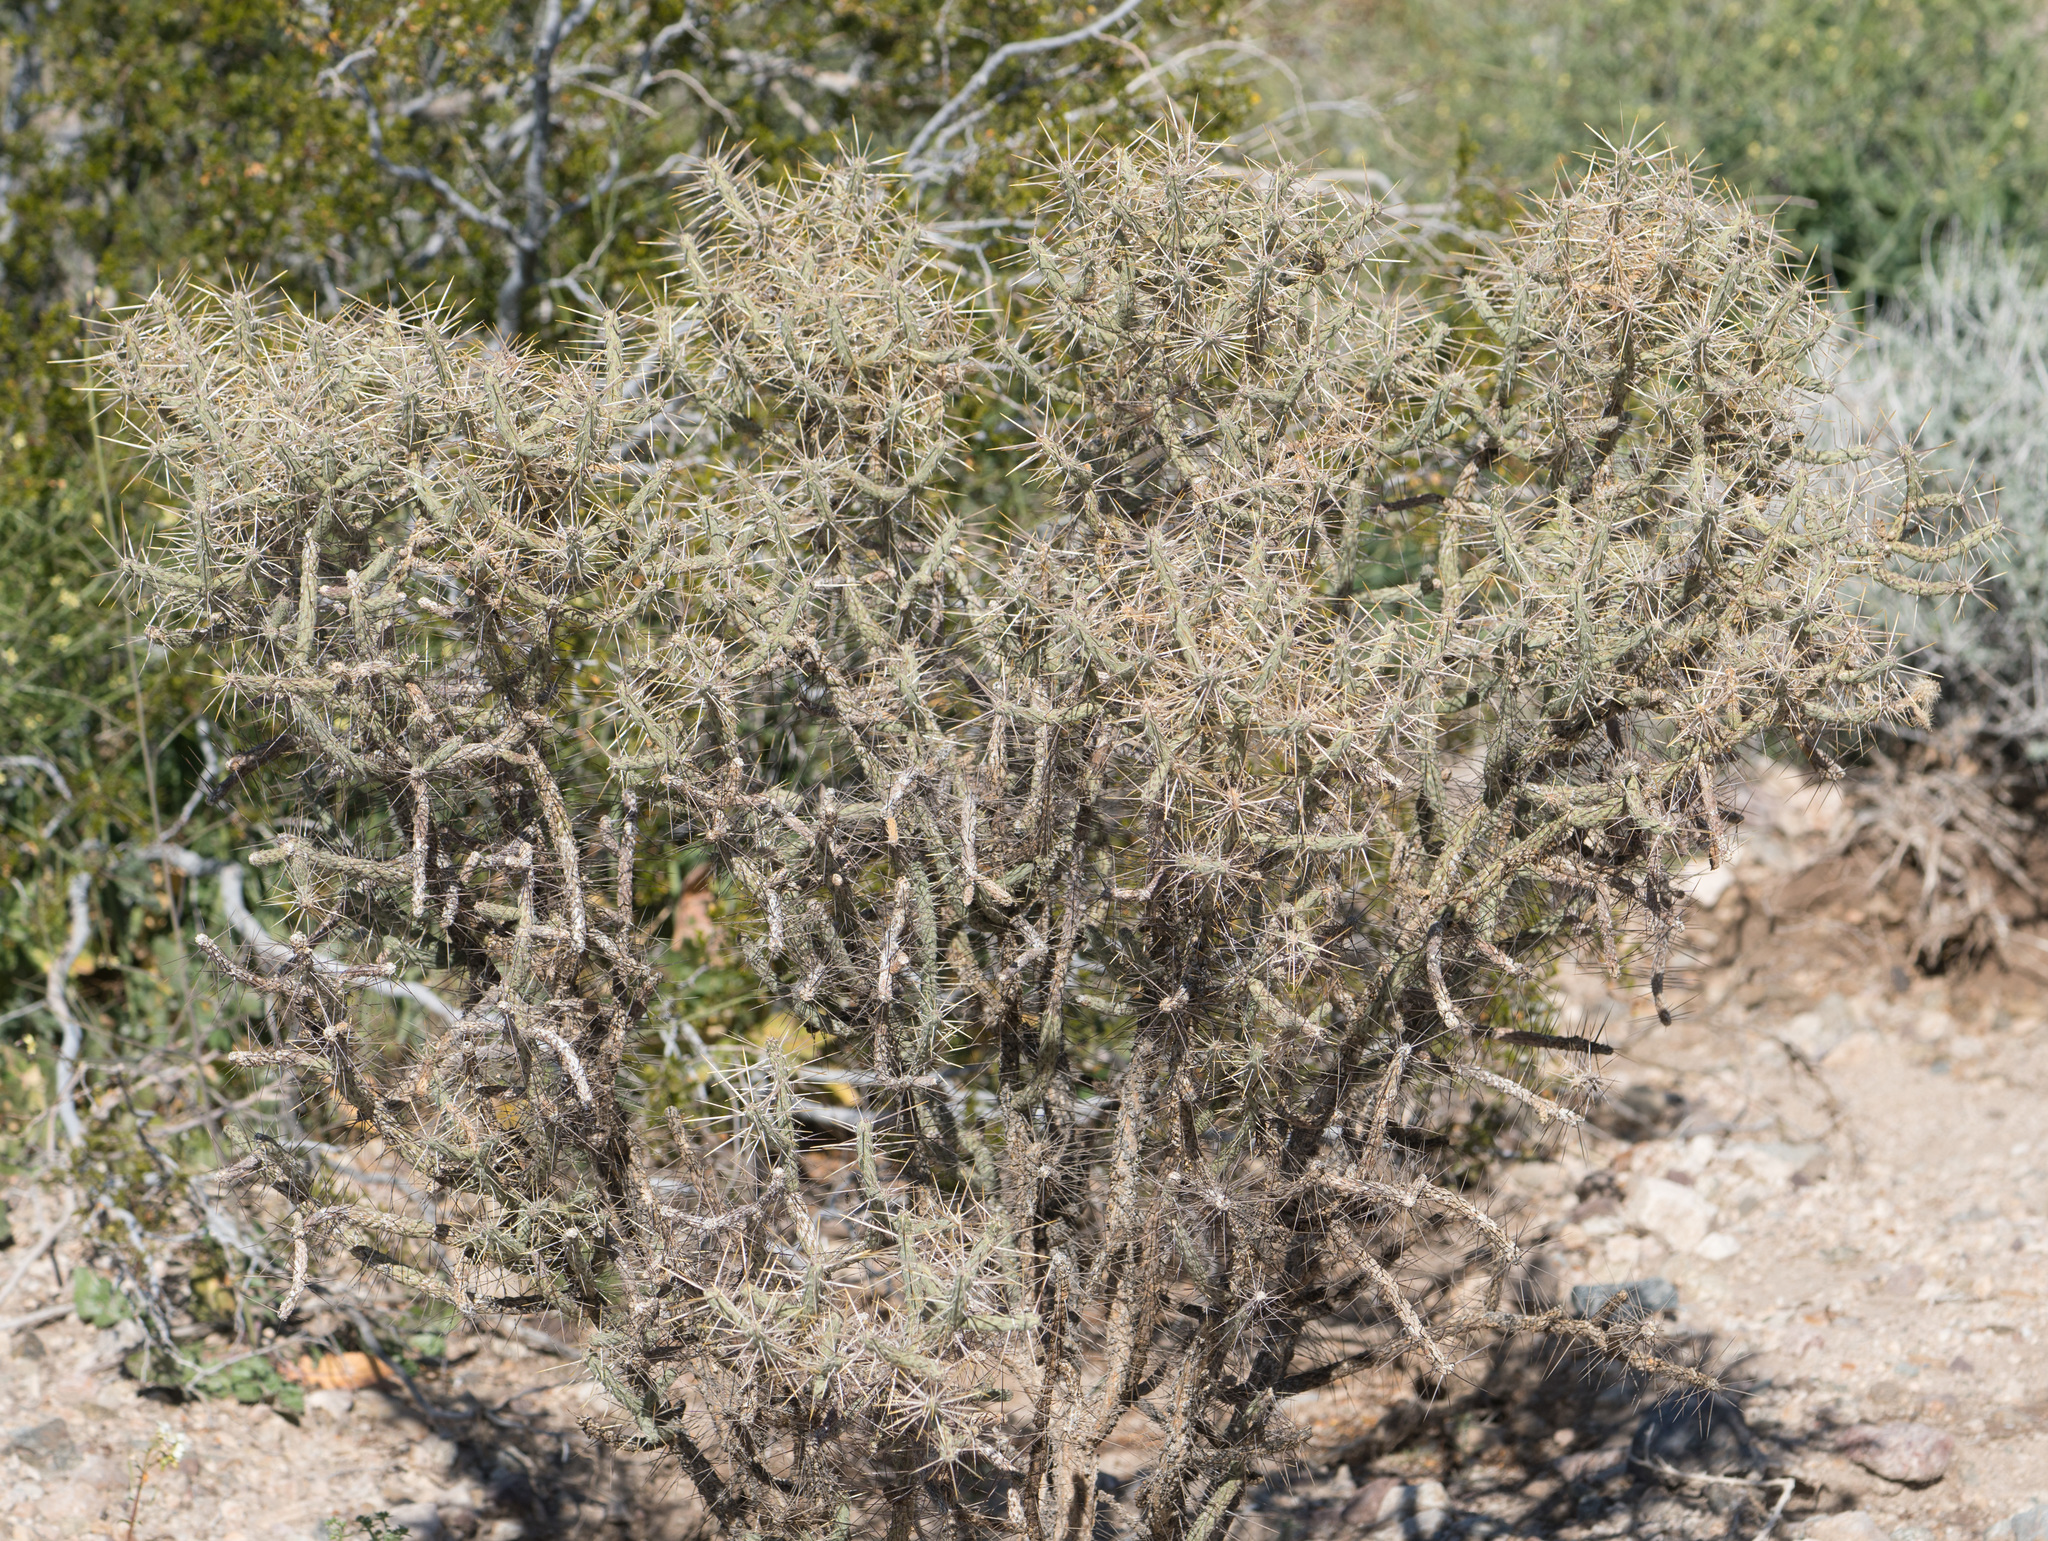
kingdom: Plantae
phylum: Tracheophyta
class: Magnoliopsida
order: Caryophyllales
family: Cactaceae
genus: Cylindropuntia
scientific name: Cylindropuntia ramosissima
